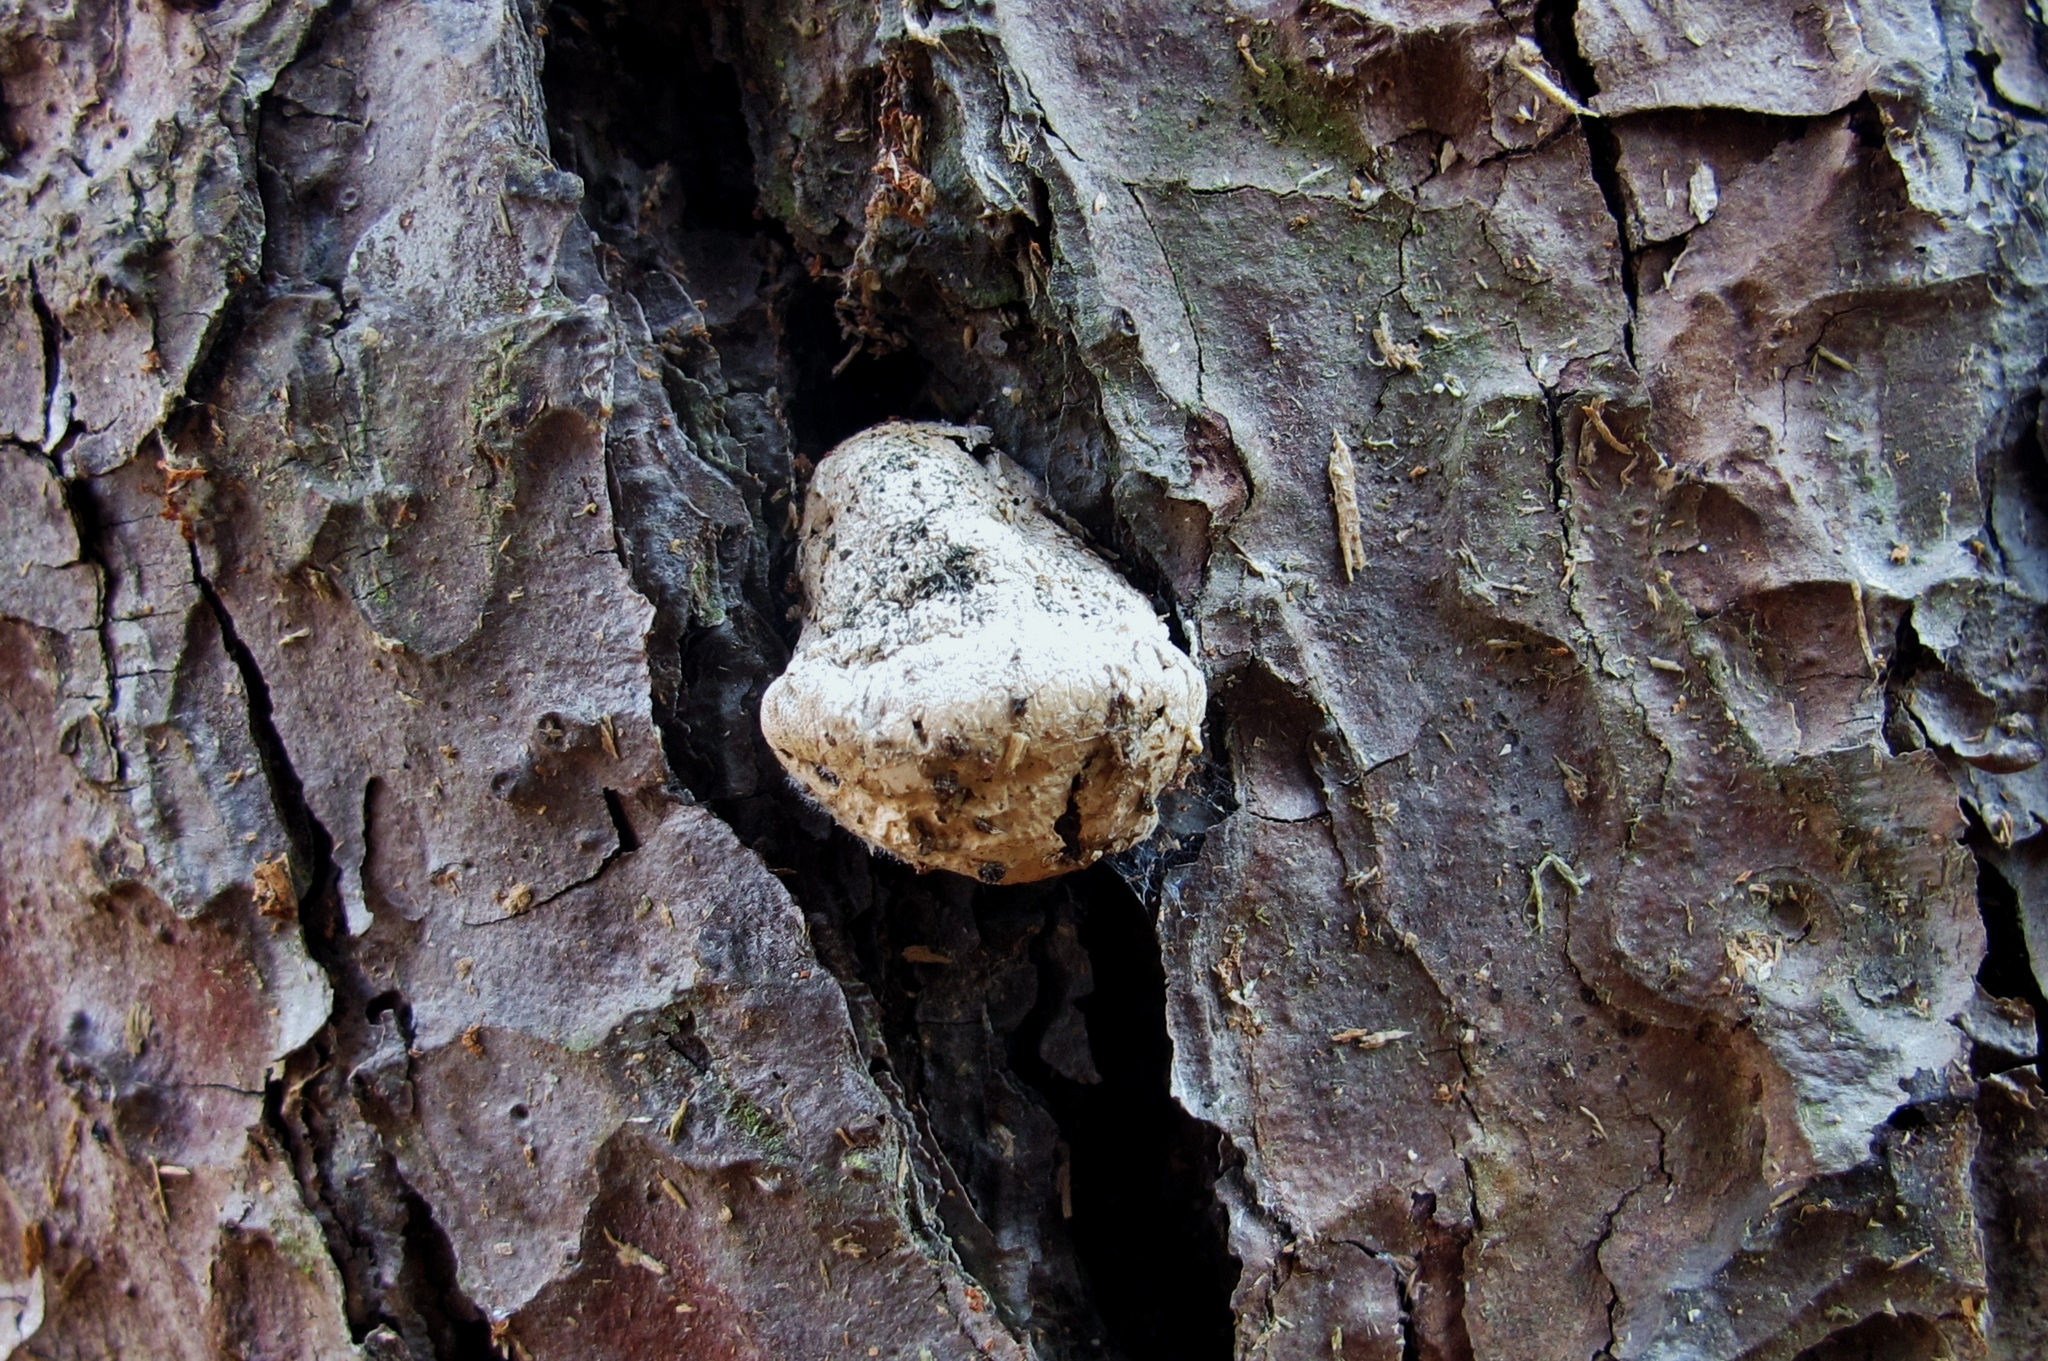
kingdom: Fungi
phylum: Basidiomycota
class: Agaricomycetes
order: Polyporales
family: Polyporaceae
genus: Cryptoporus
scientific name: Cryptoporus volvatus
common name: Veiled polypore
